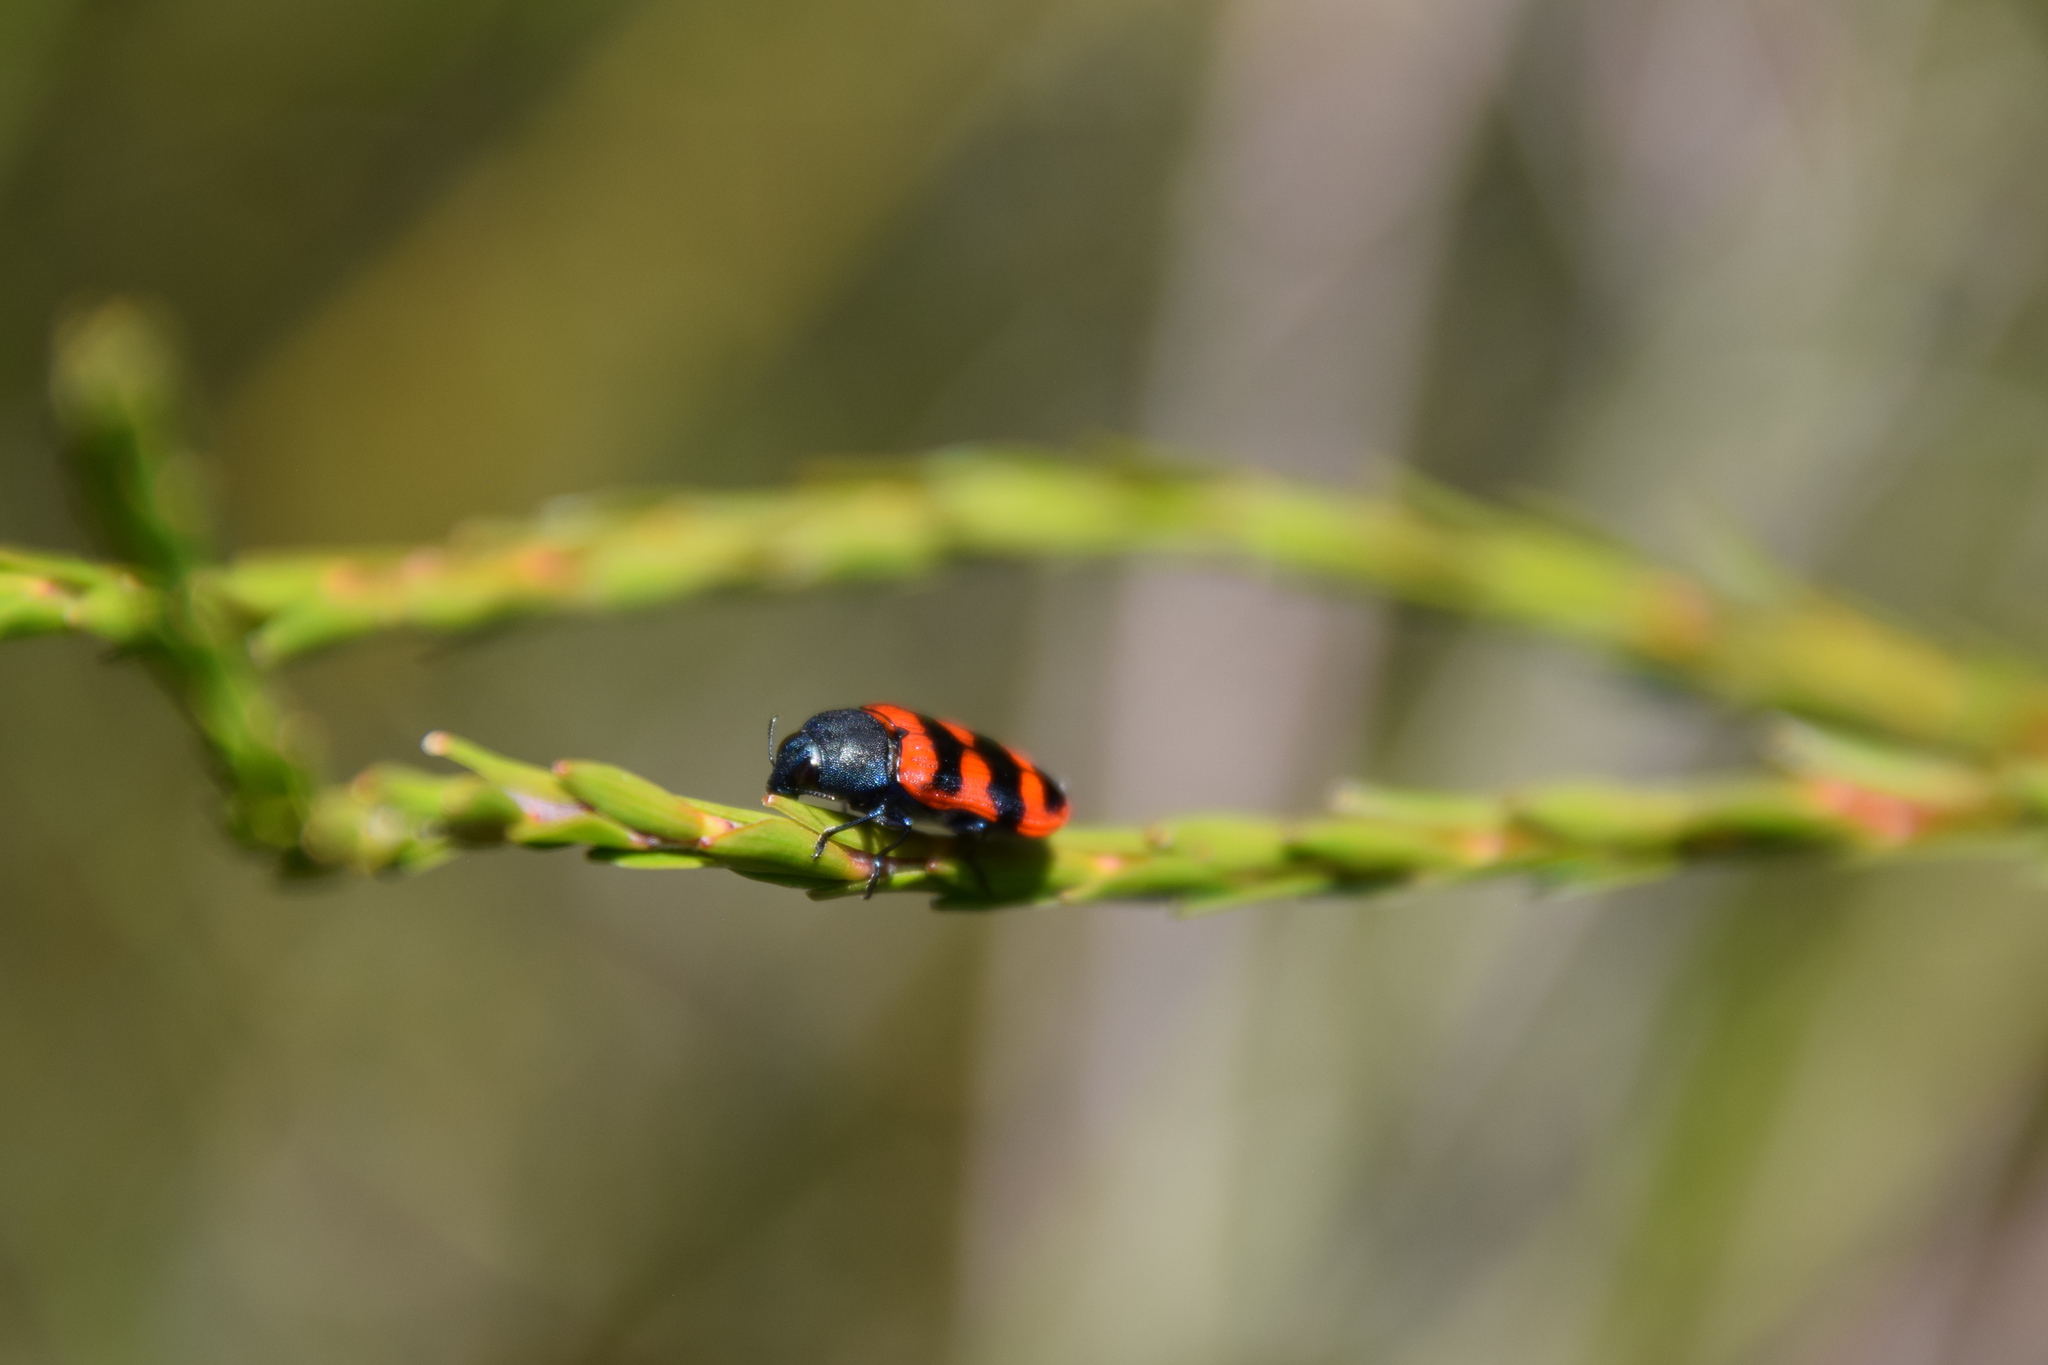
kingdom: Animalia
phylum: Arthropoda
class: Insecta
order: Coleoptera
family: Buprestidae
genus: Castiarina
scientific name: Castiarina crenata
